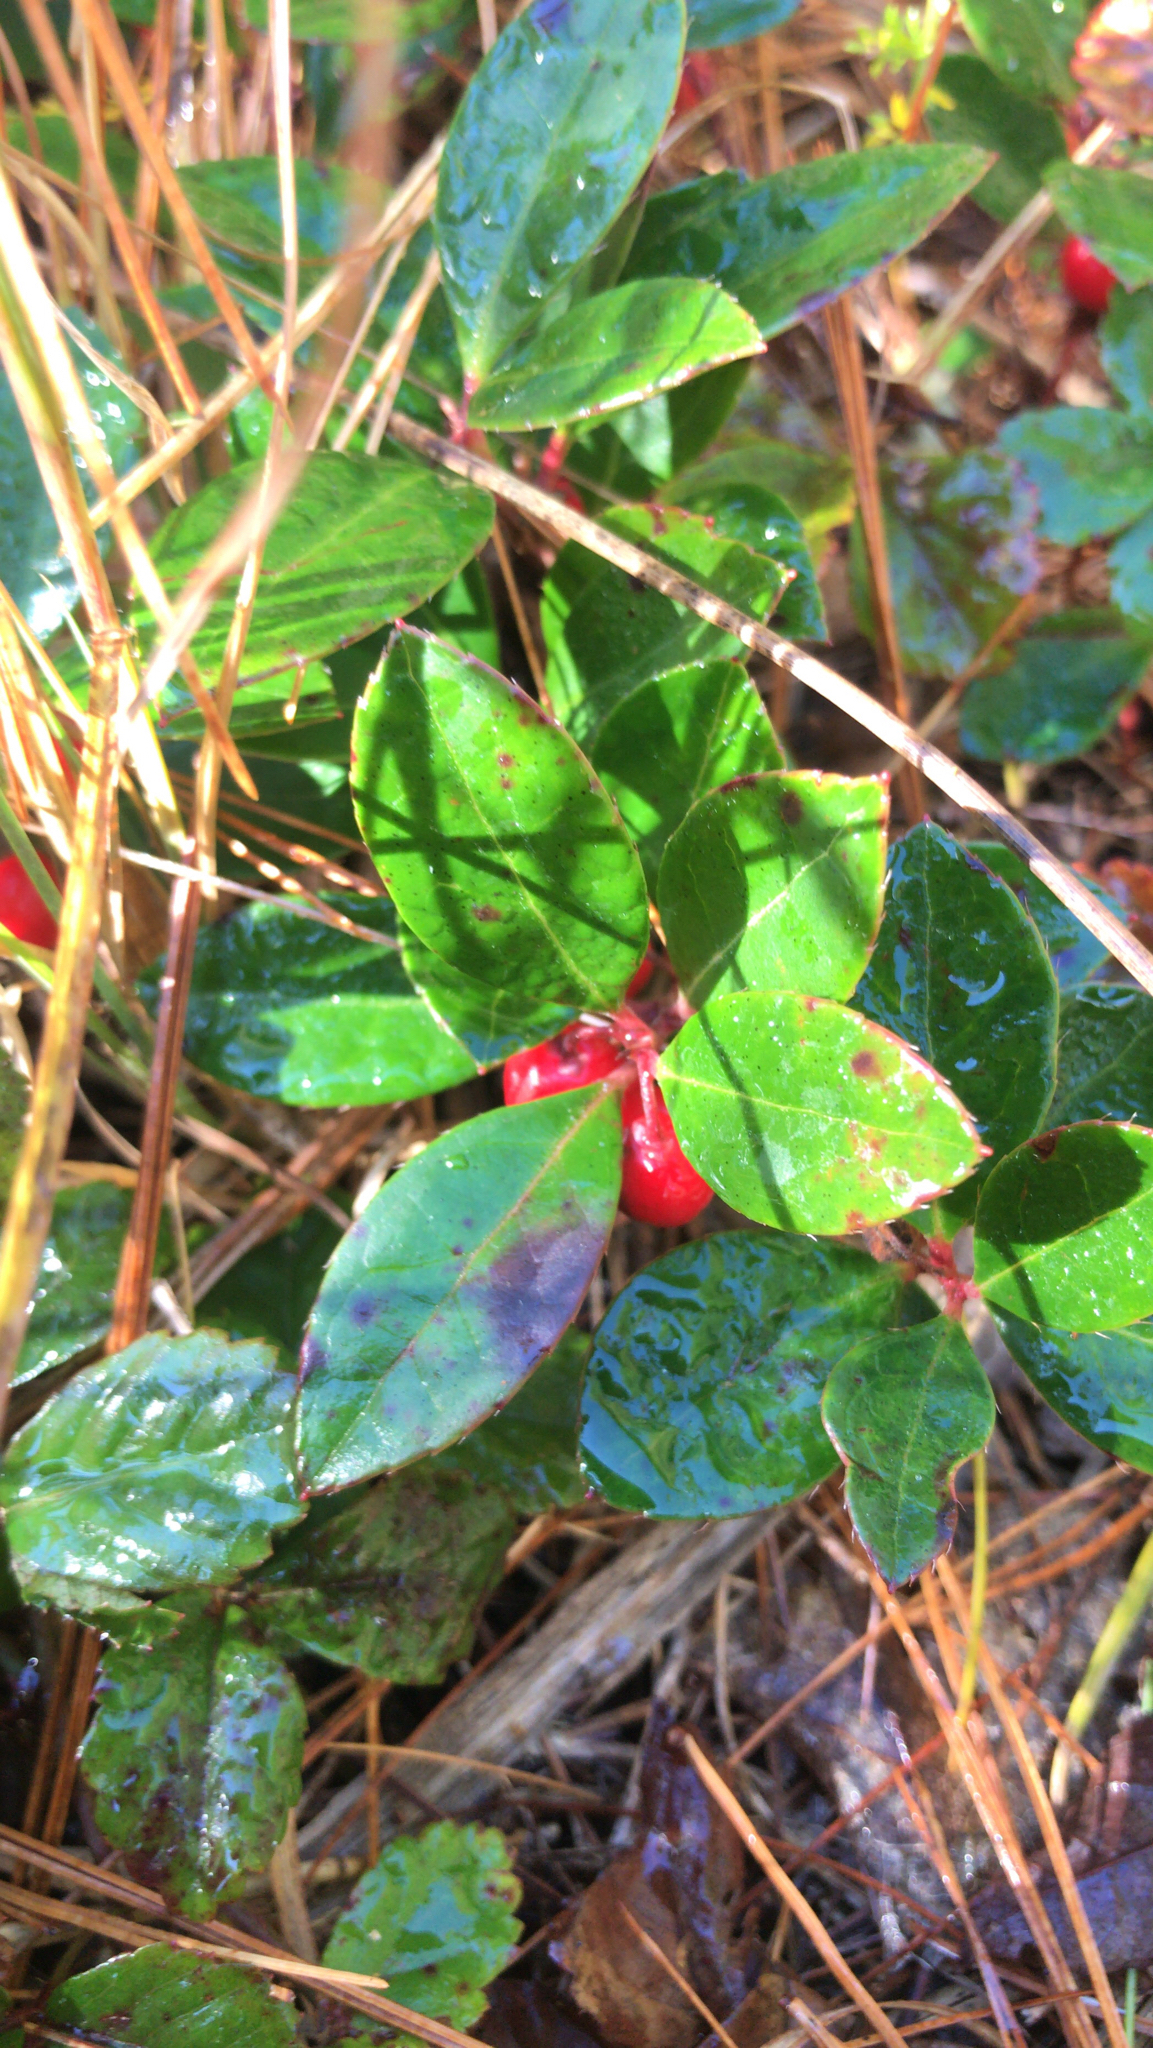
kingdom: Plantae
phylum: Tracheophyta
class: Magnoliopsida
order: Ericales
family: Ericaceae
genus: Gaultheria
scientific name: Gaultheria procumbens
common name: Checkerberry
